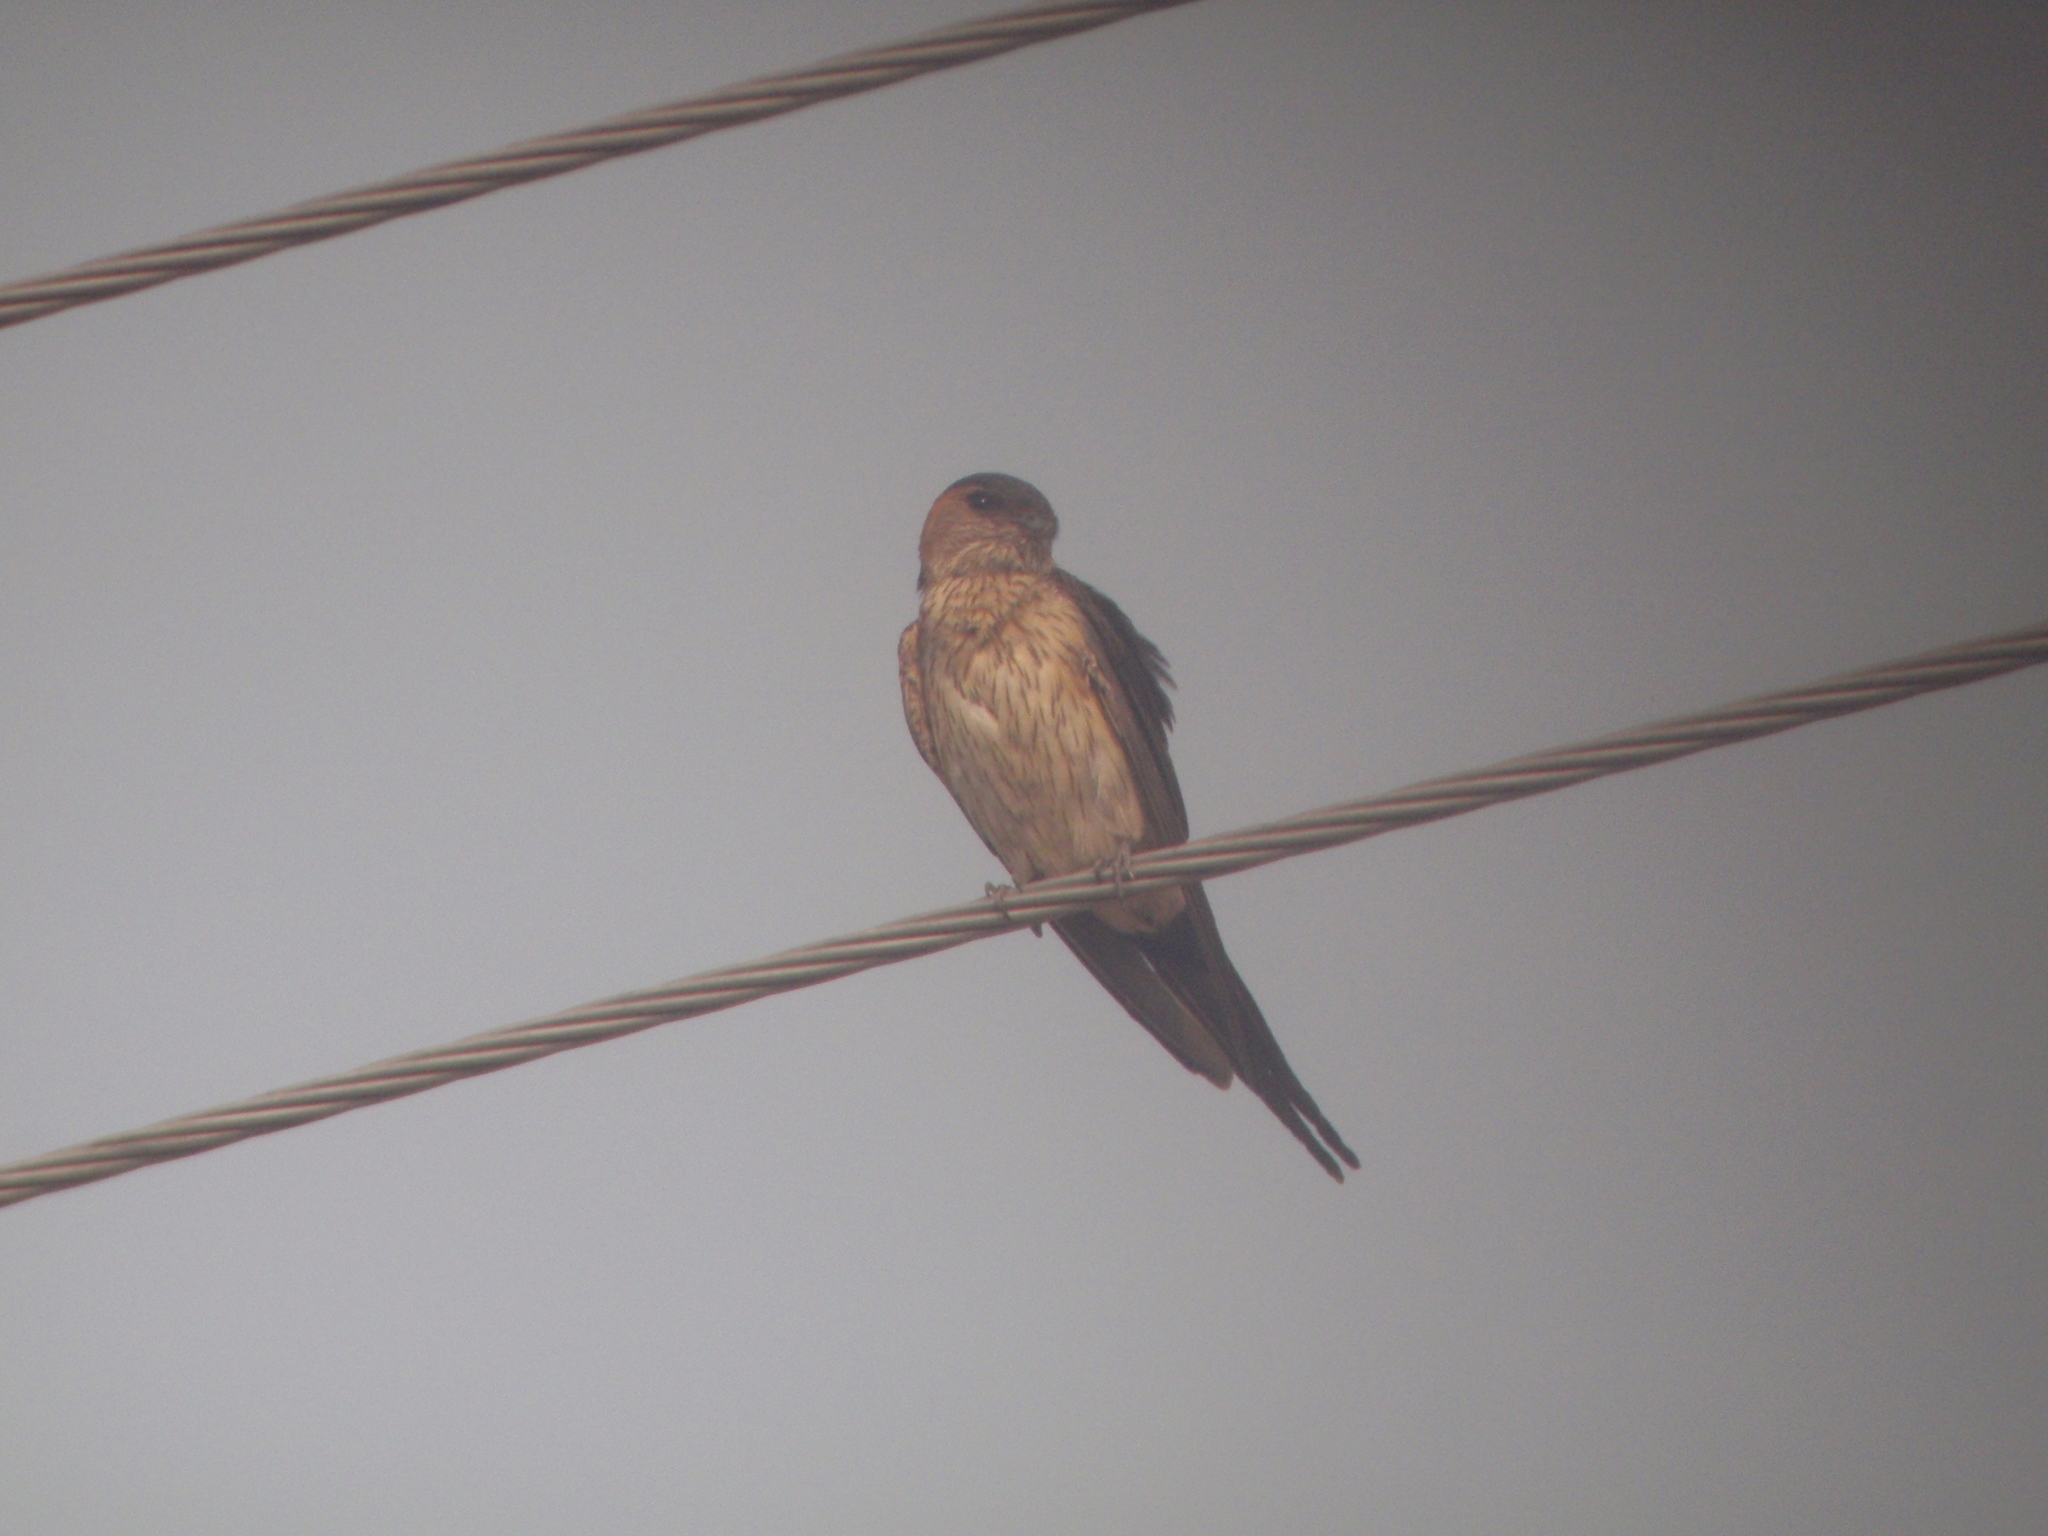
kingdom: Animalia
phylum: Chordata
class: Aves
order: Passeriformes
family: Hirundinidae
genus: Cecropis
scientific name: Cecropis daurica
